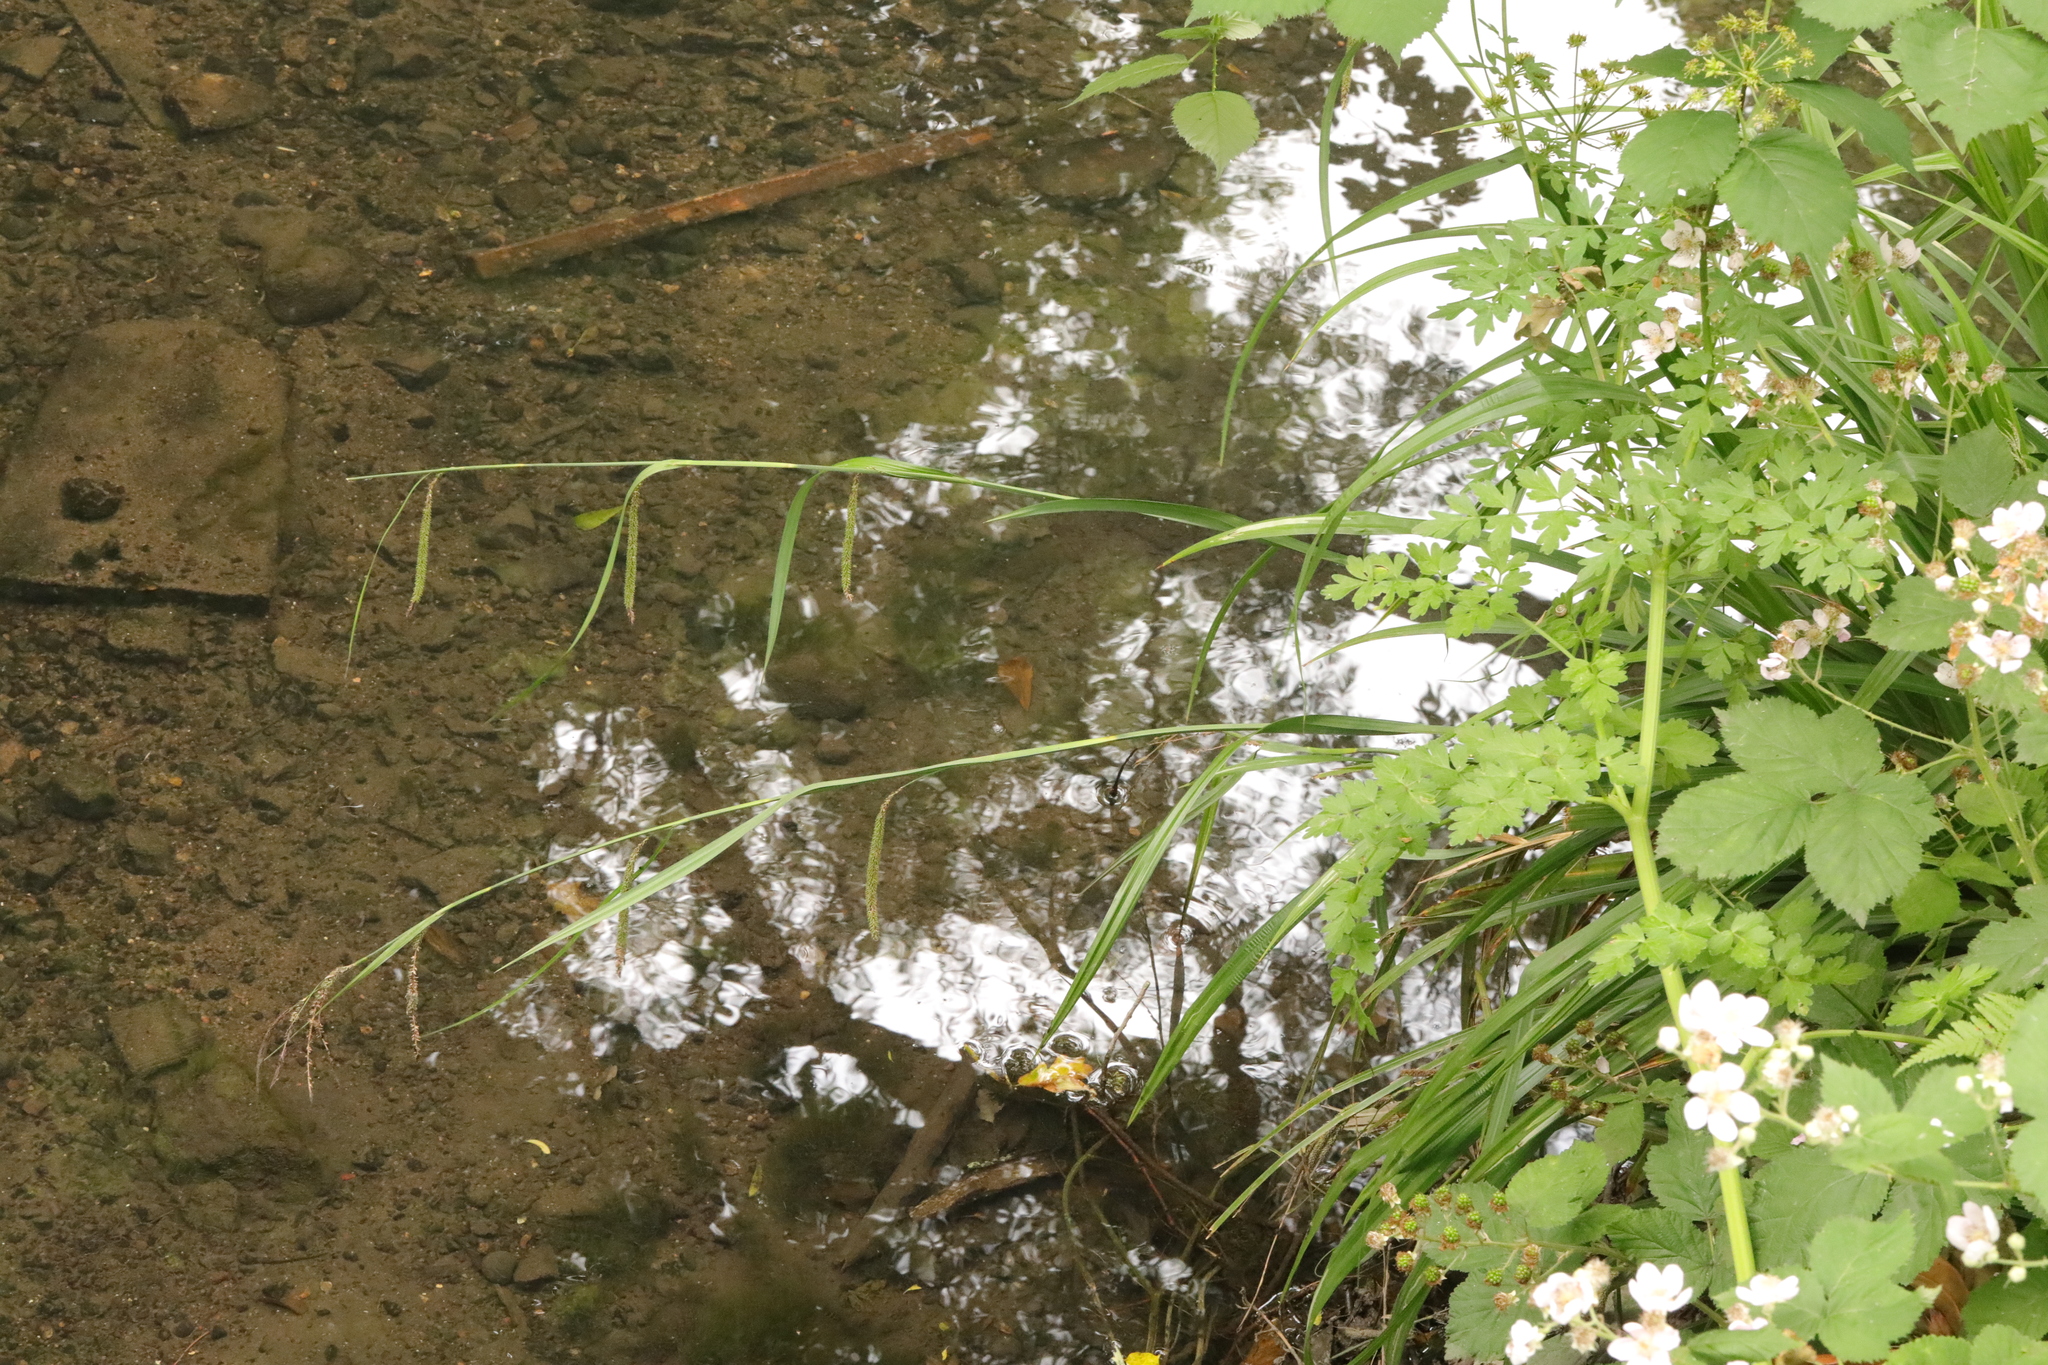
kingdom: Plantae
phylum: Tracheophyta
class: Liliopsida
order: Poales
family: Cyperaceae
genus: Carex
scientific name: Carex pendula
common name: Pendulous sedge
